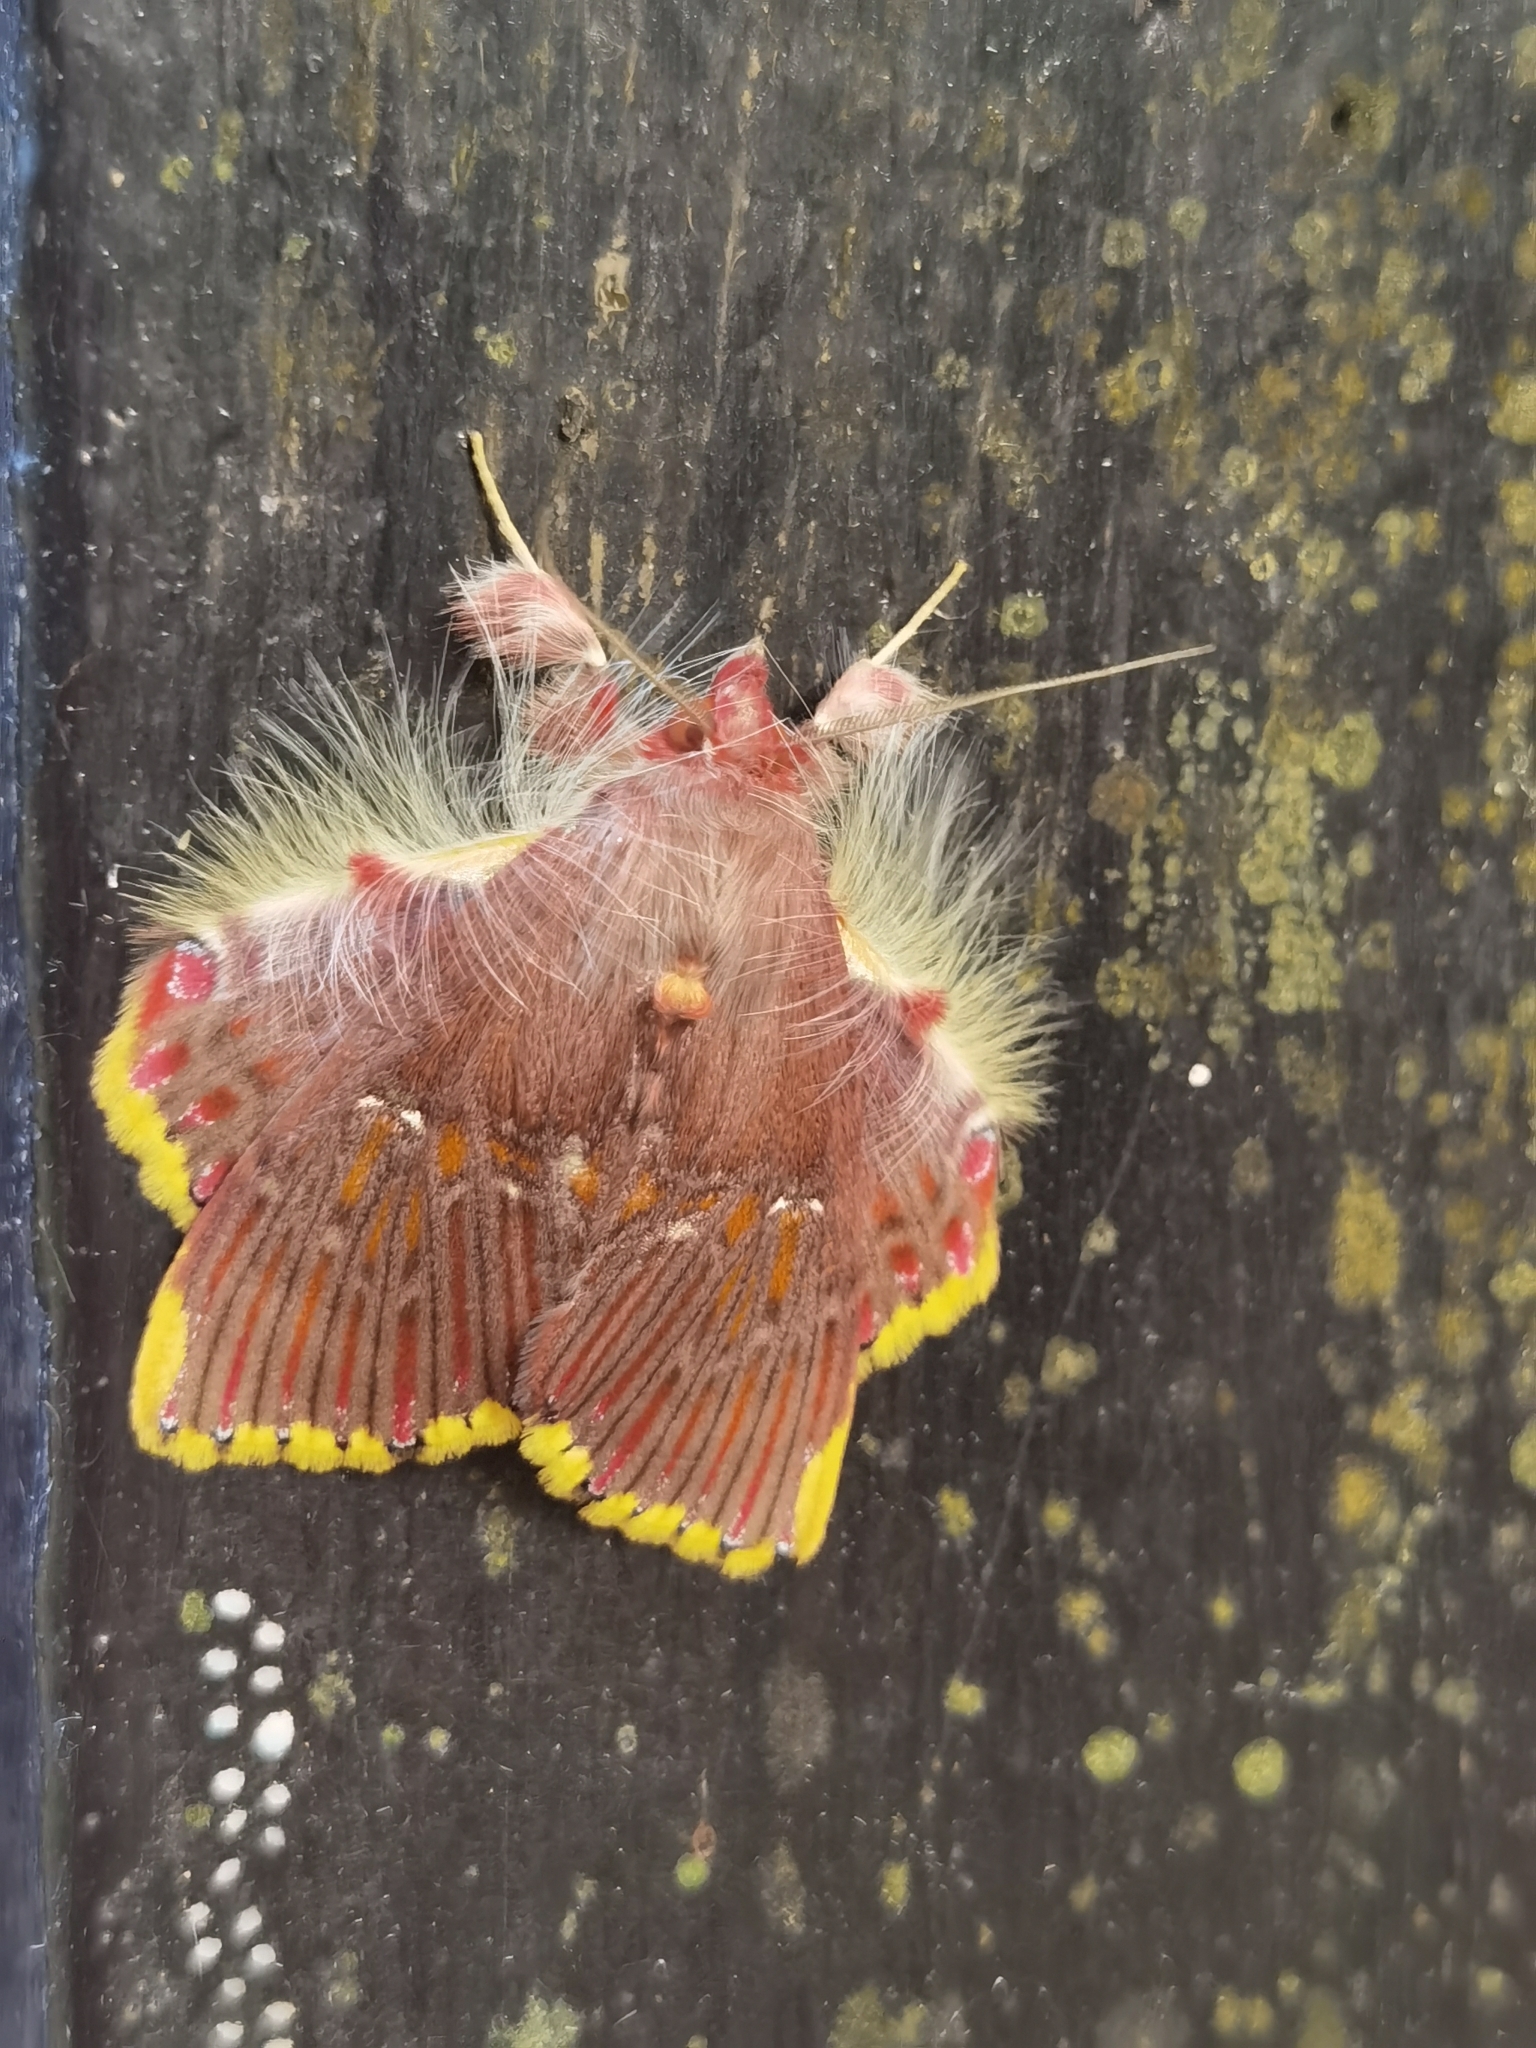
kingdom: Animalia
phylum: Arthropoda
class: Insecta
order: Lepidoptera
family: Erebidae
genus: Sosxetra
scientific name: Sosxetra grata
